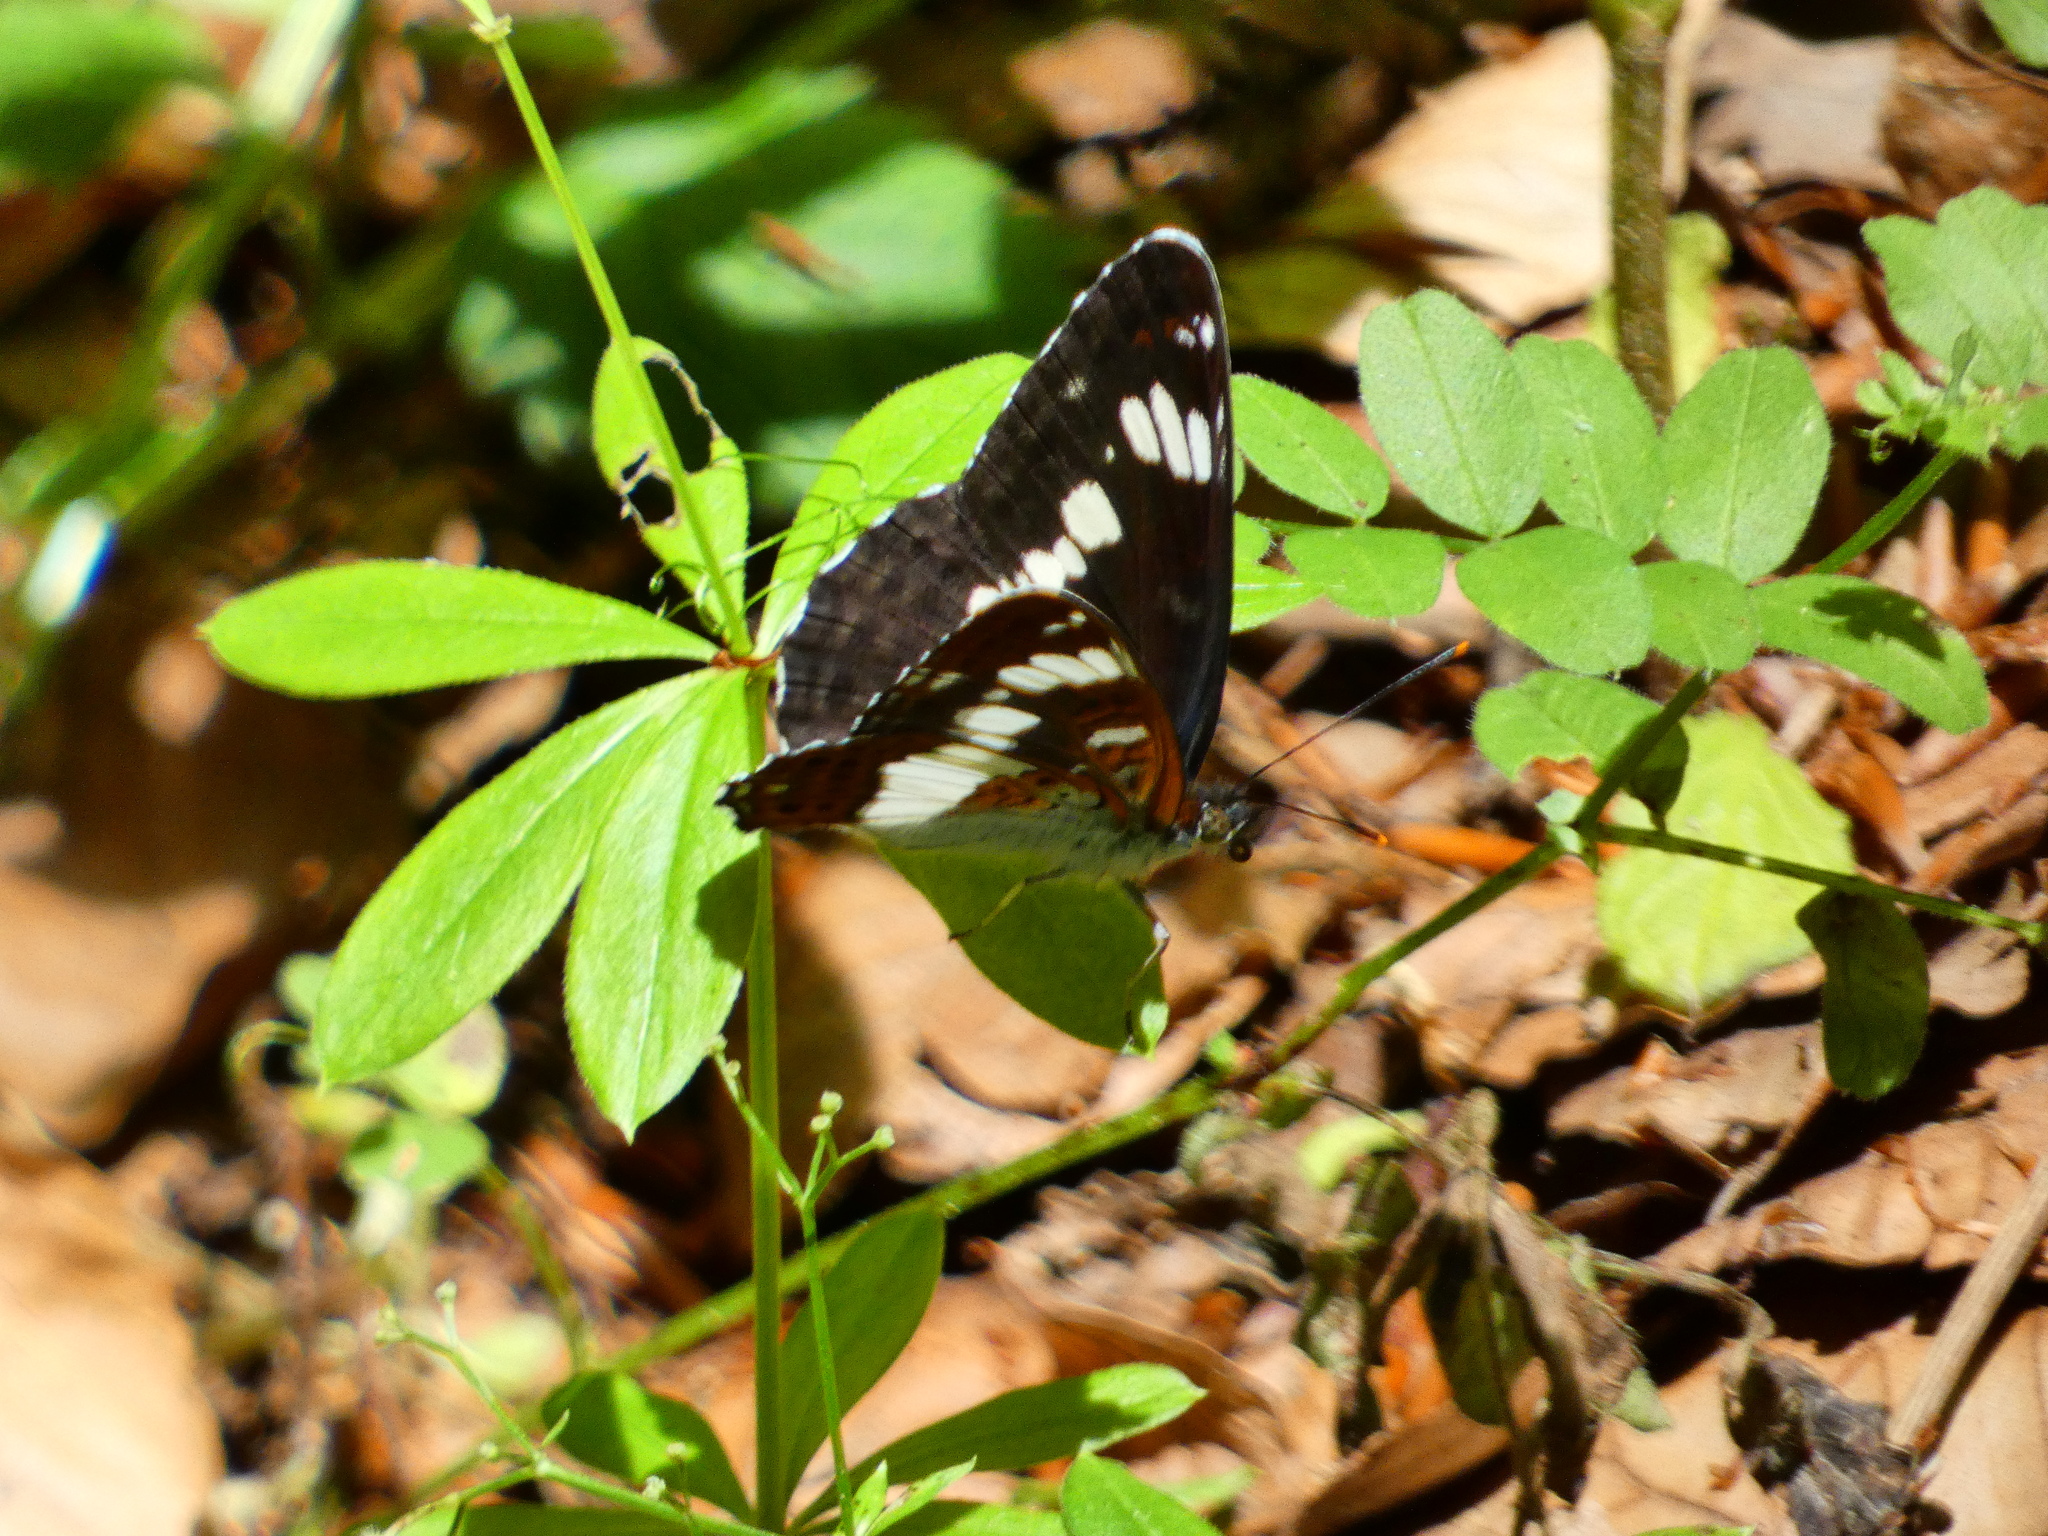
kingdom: Animalia
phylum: Arthropoda
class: Insecta
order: Lepidoptera
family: Nymphalidae
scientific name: Nymphalidae
